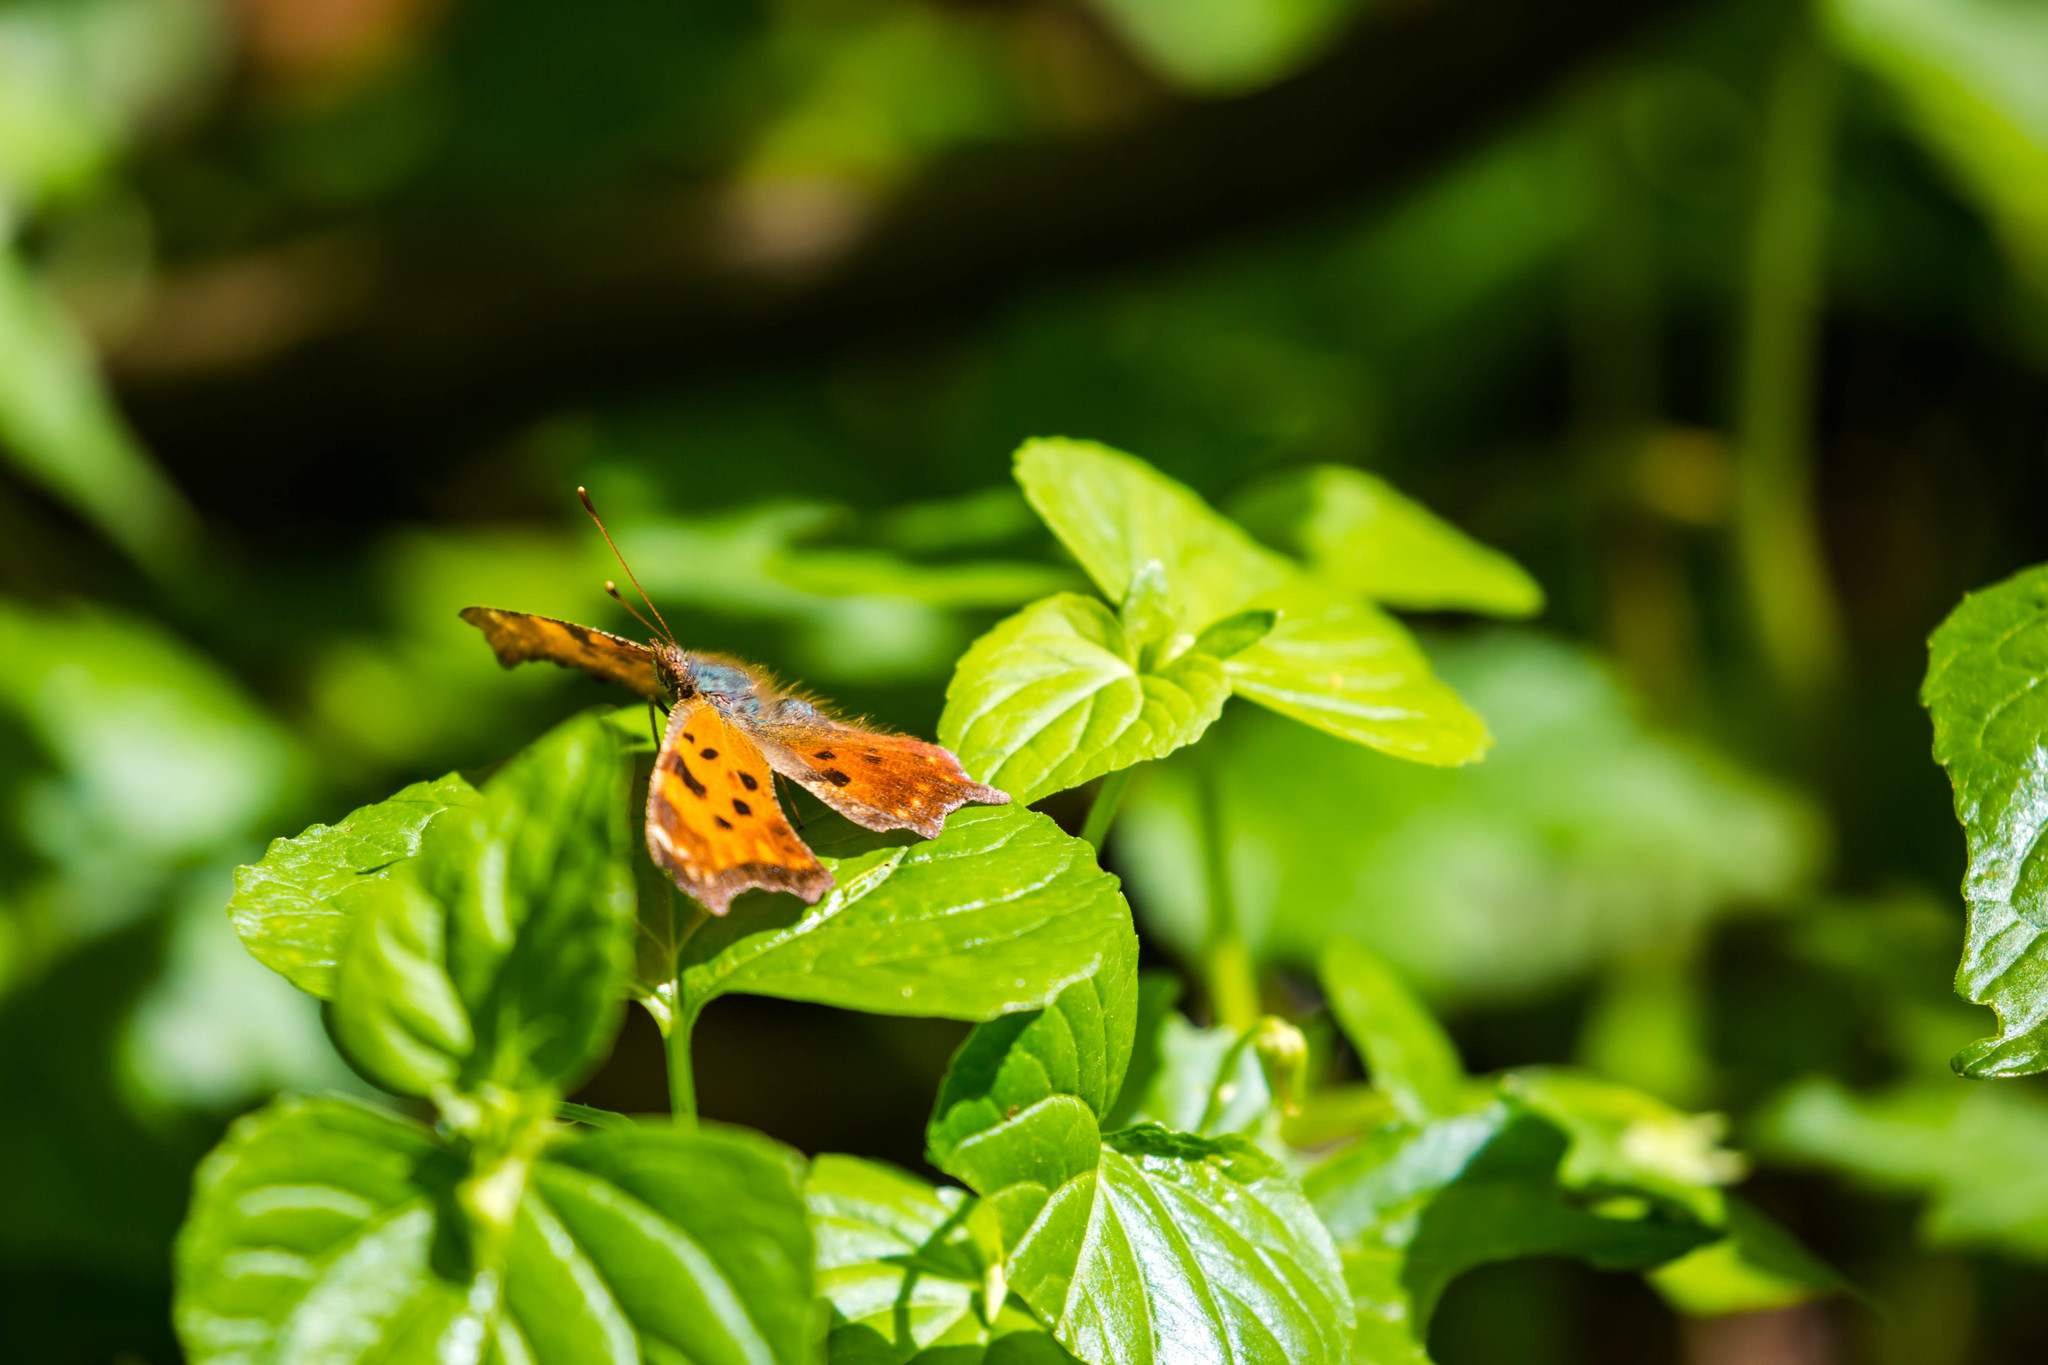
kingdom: Animalia
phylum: Arthropoda
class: Insecta
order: Lepidoptera
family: Nymphalidae
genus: Polygonia
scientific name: Polygonia comma
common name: Eastern comma
